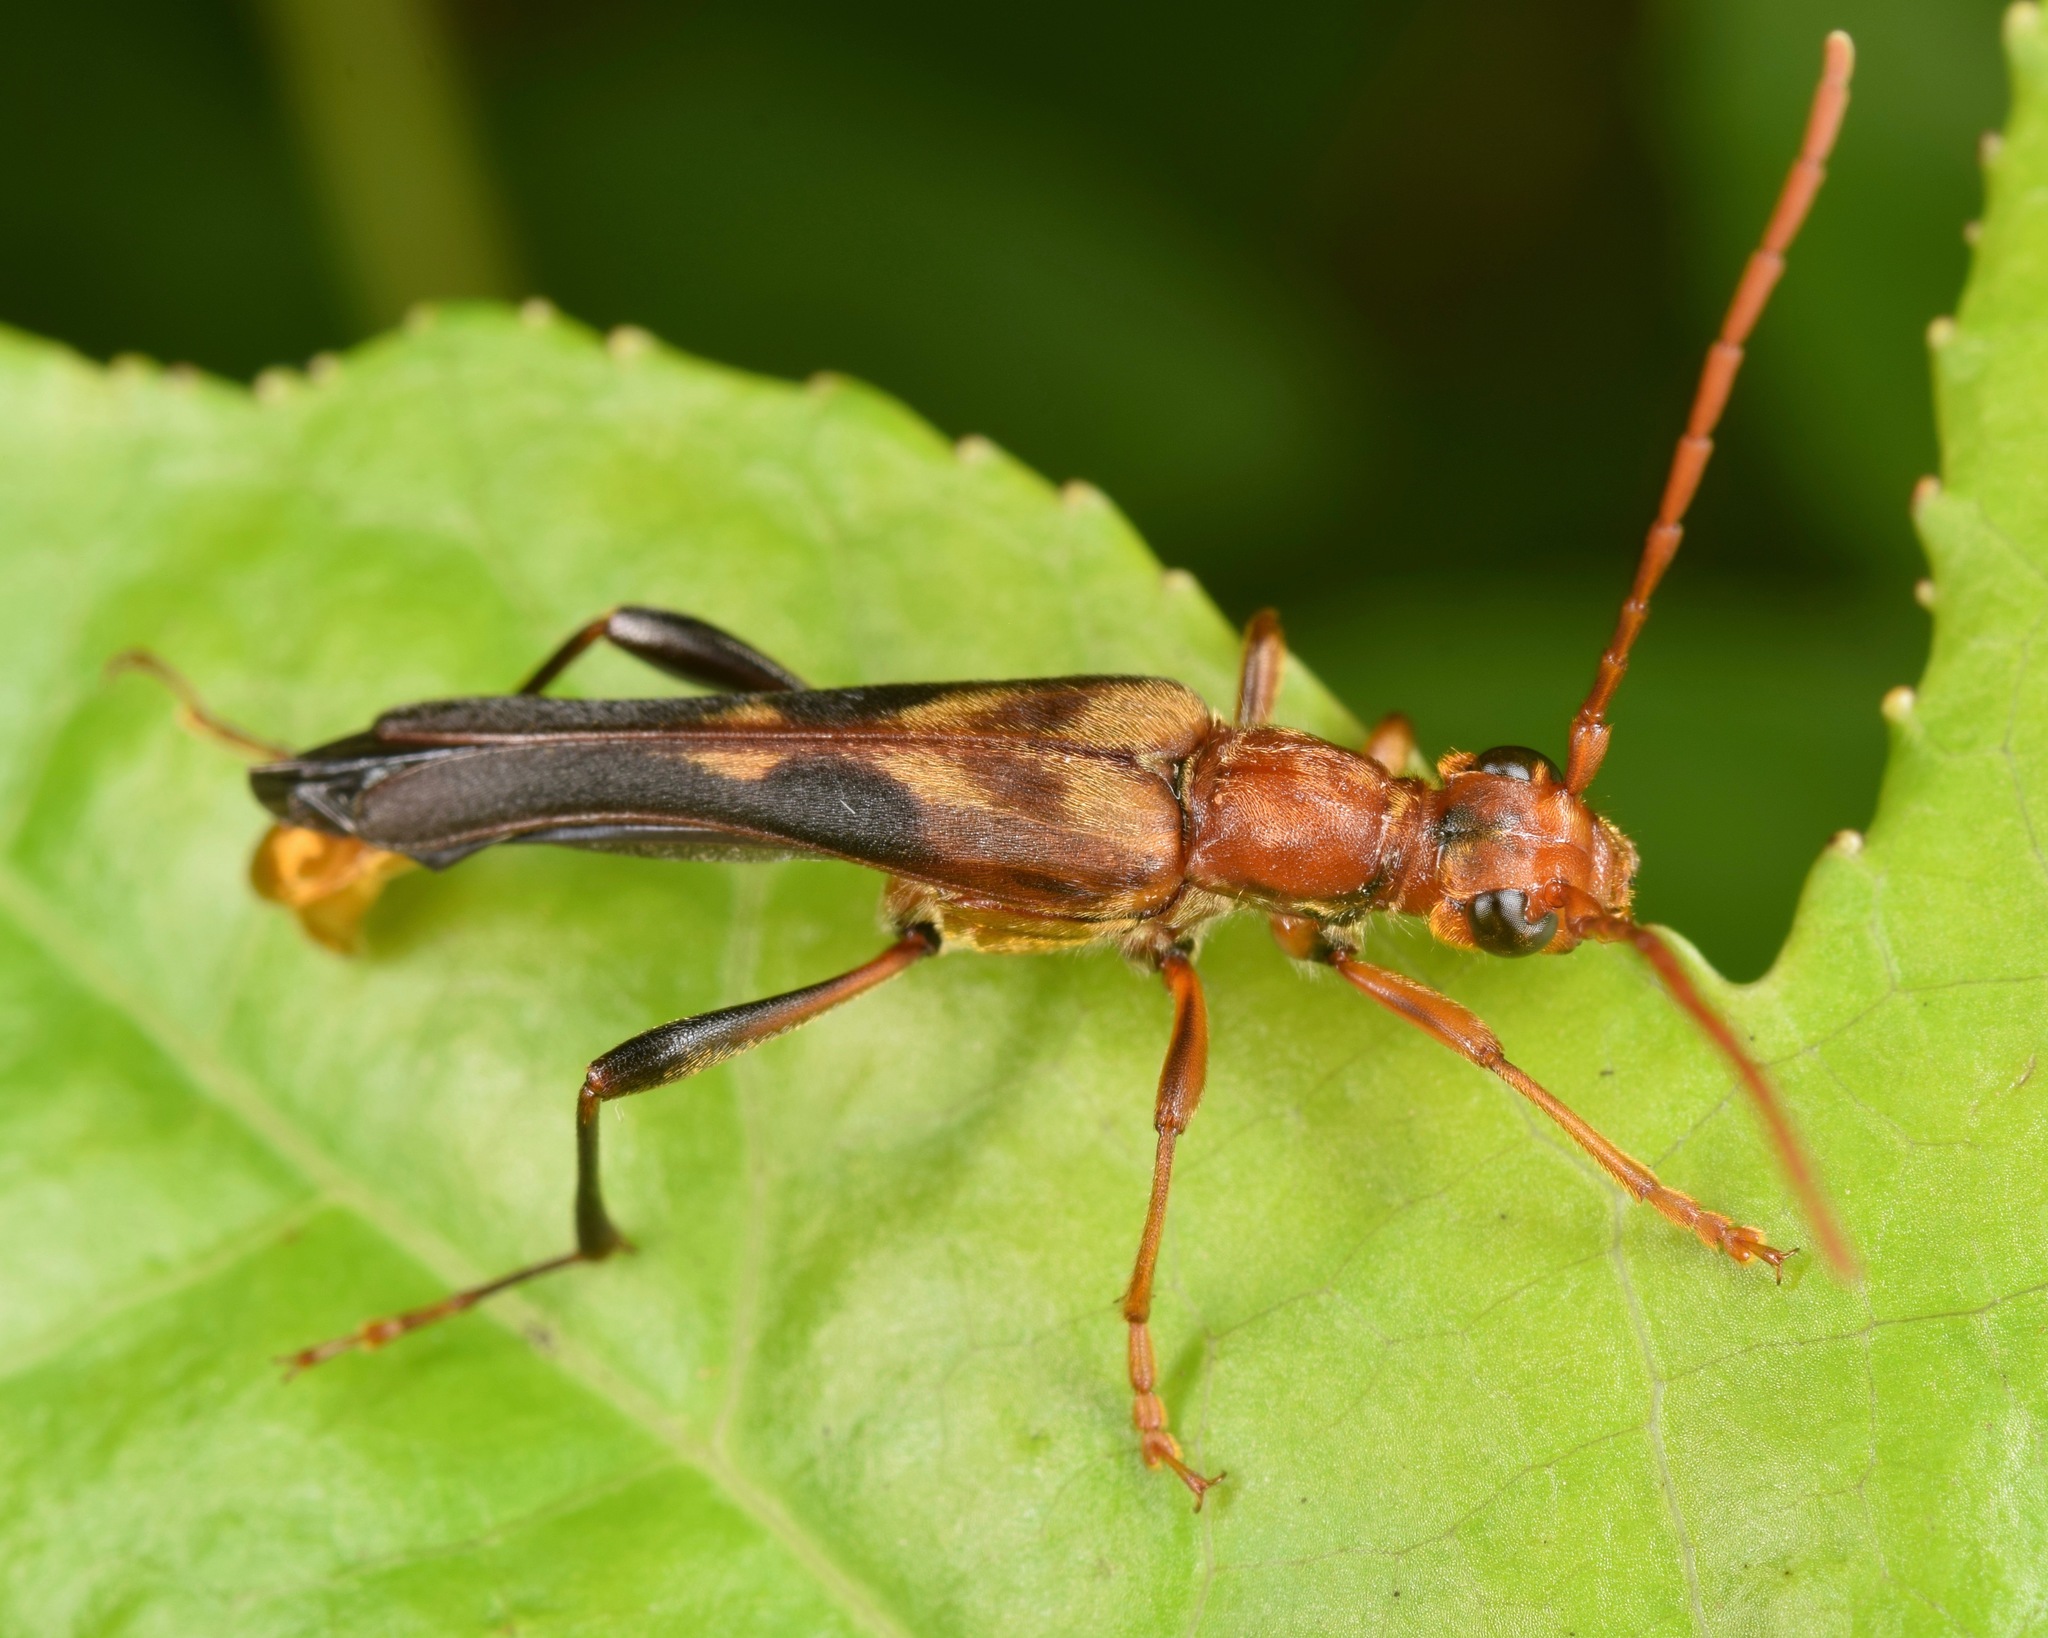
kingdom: Animalia
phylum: Arthropoda
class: Insecta
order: Coleoptera
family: Cerambycidae
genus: Bellamira
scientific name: Bellamira scalaris
